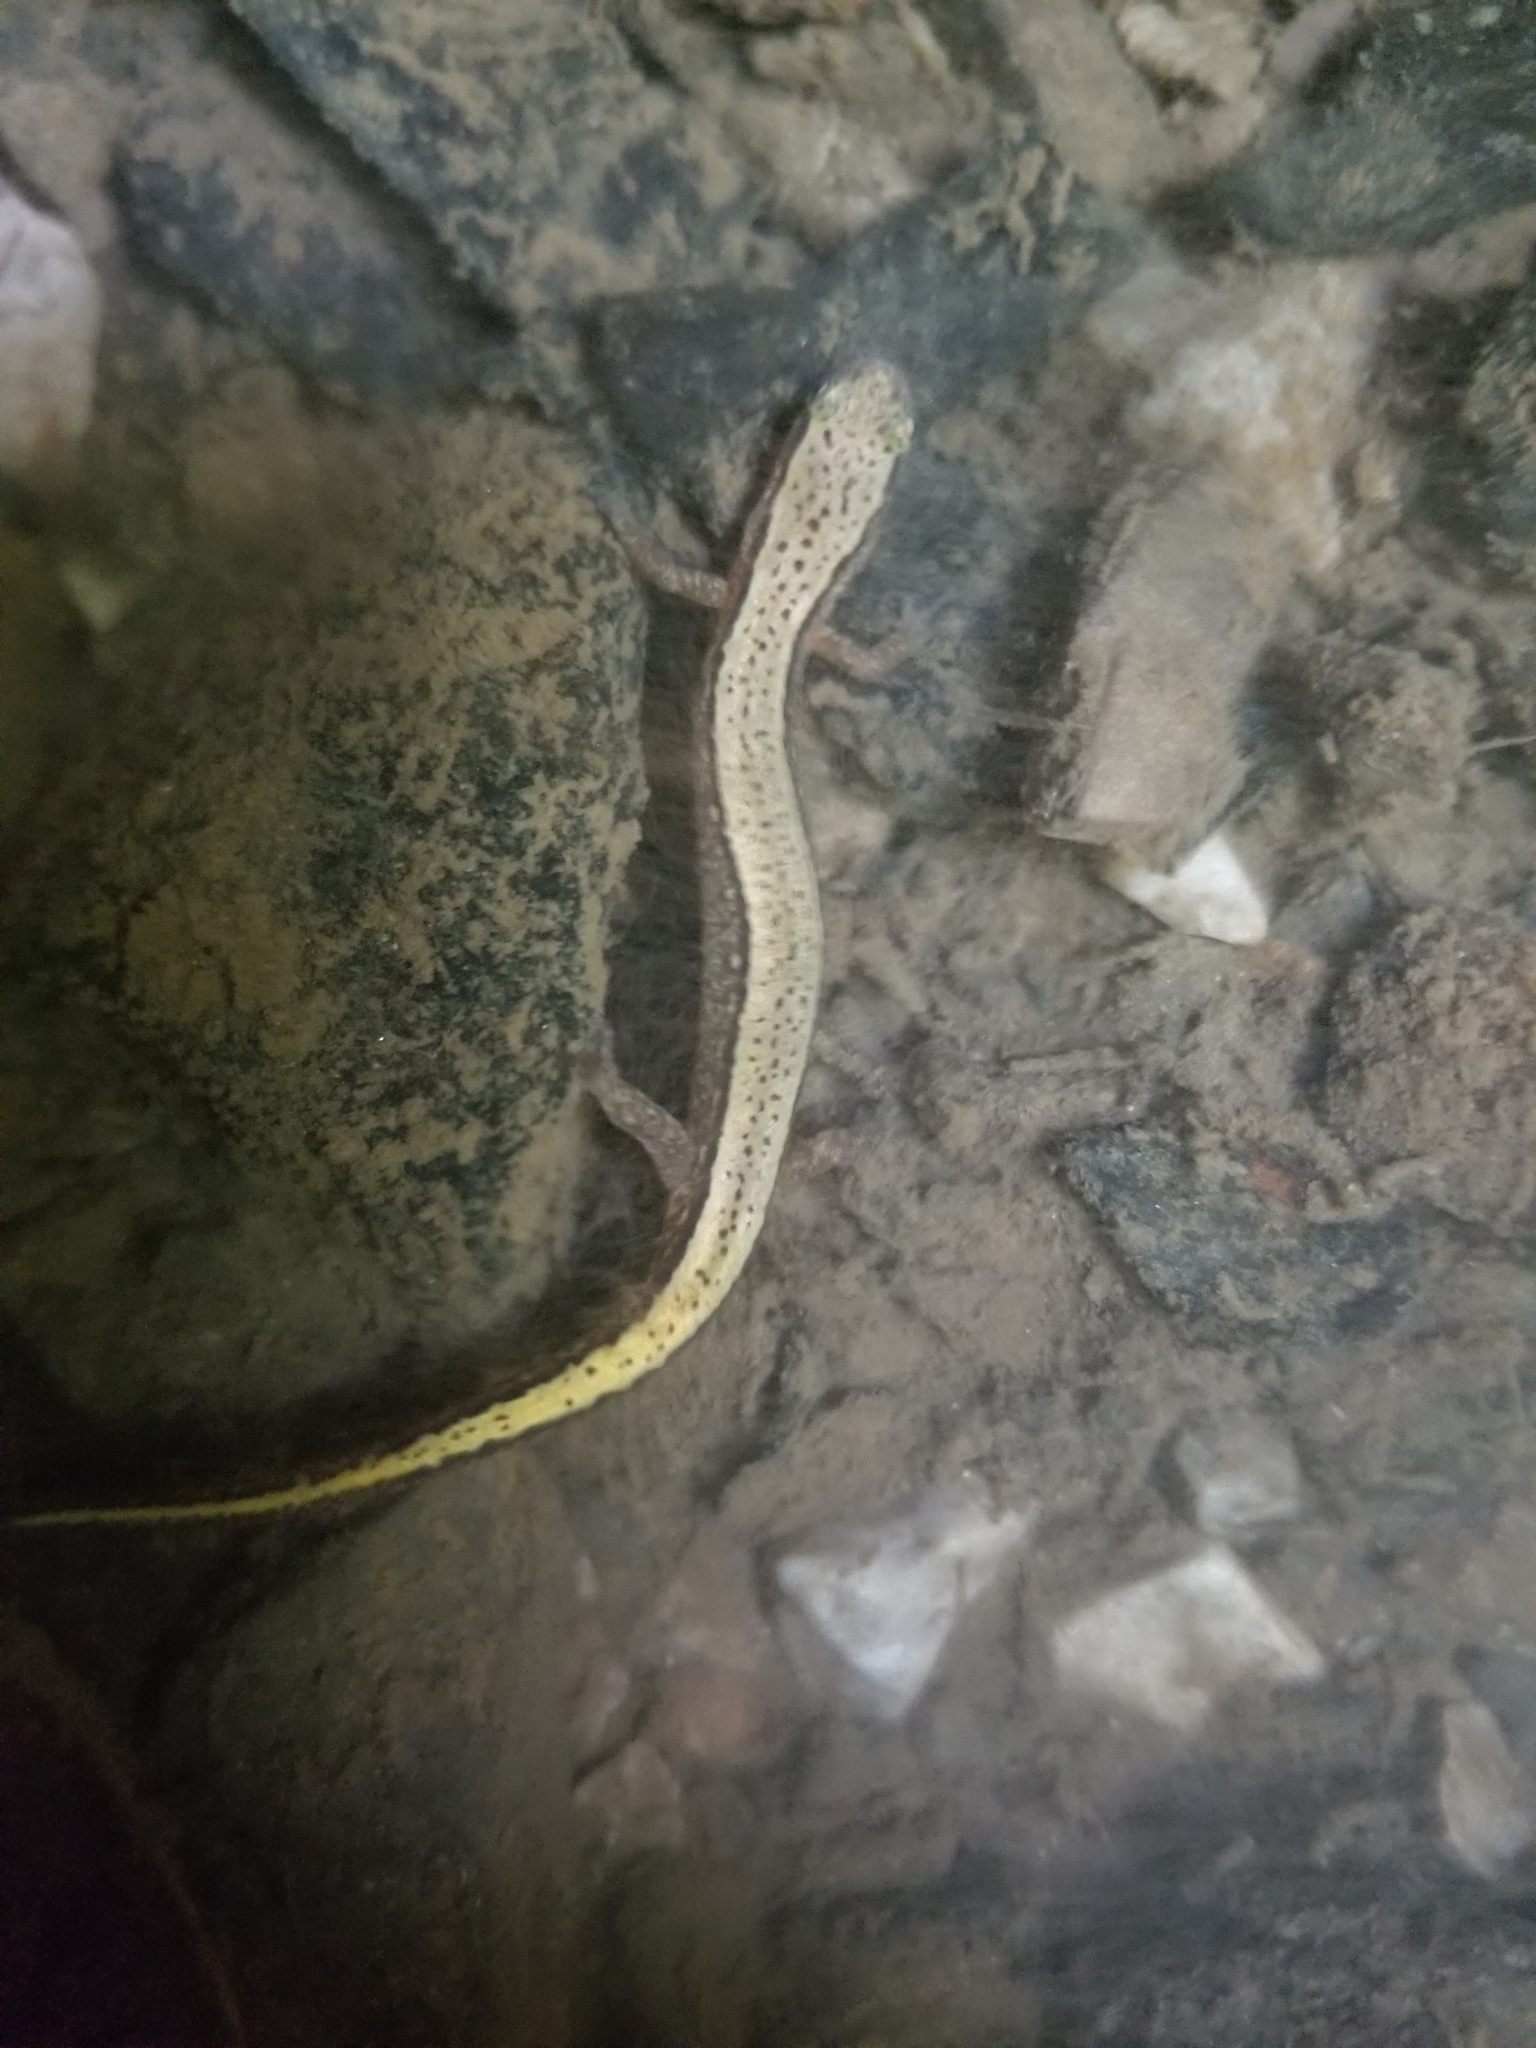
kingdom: Animalia
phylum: Chordata
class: Amphibia
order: Caudata
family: Plethodontidae
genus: Eurycea
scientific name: Eurycea cirrigera
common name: Southern two-lined salamander
